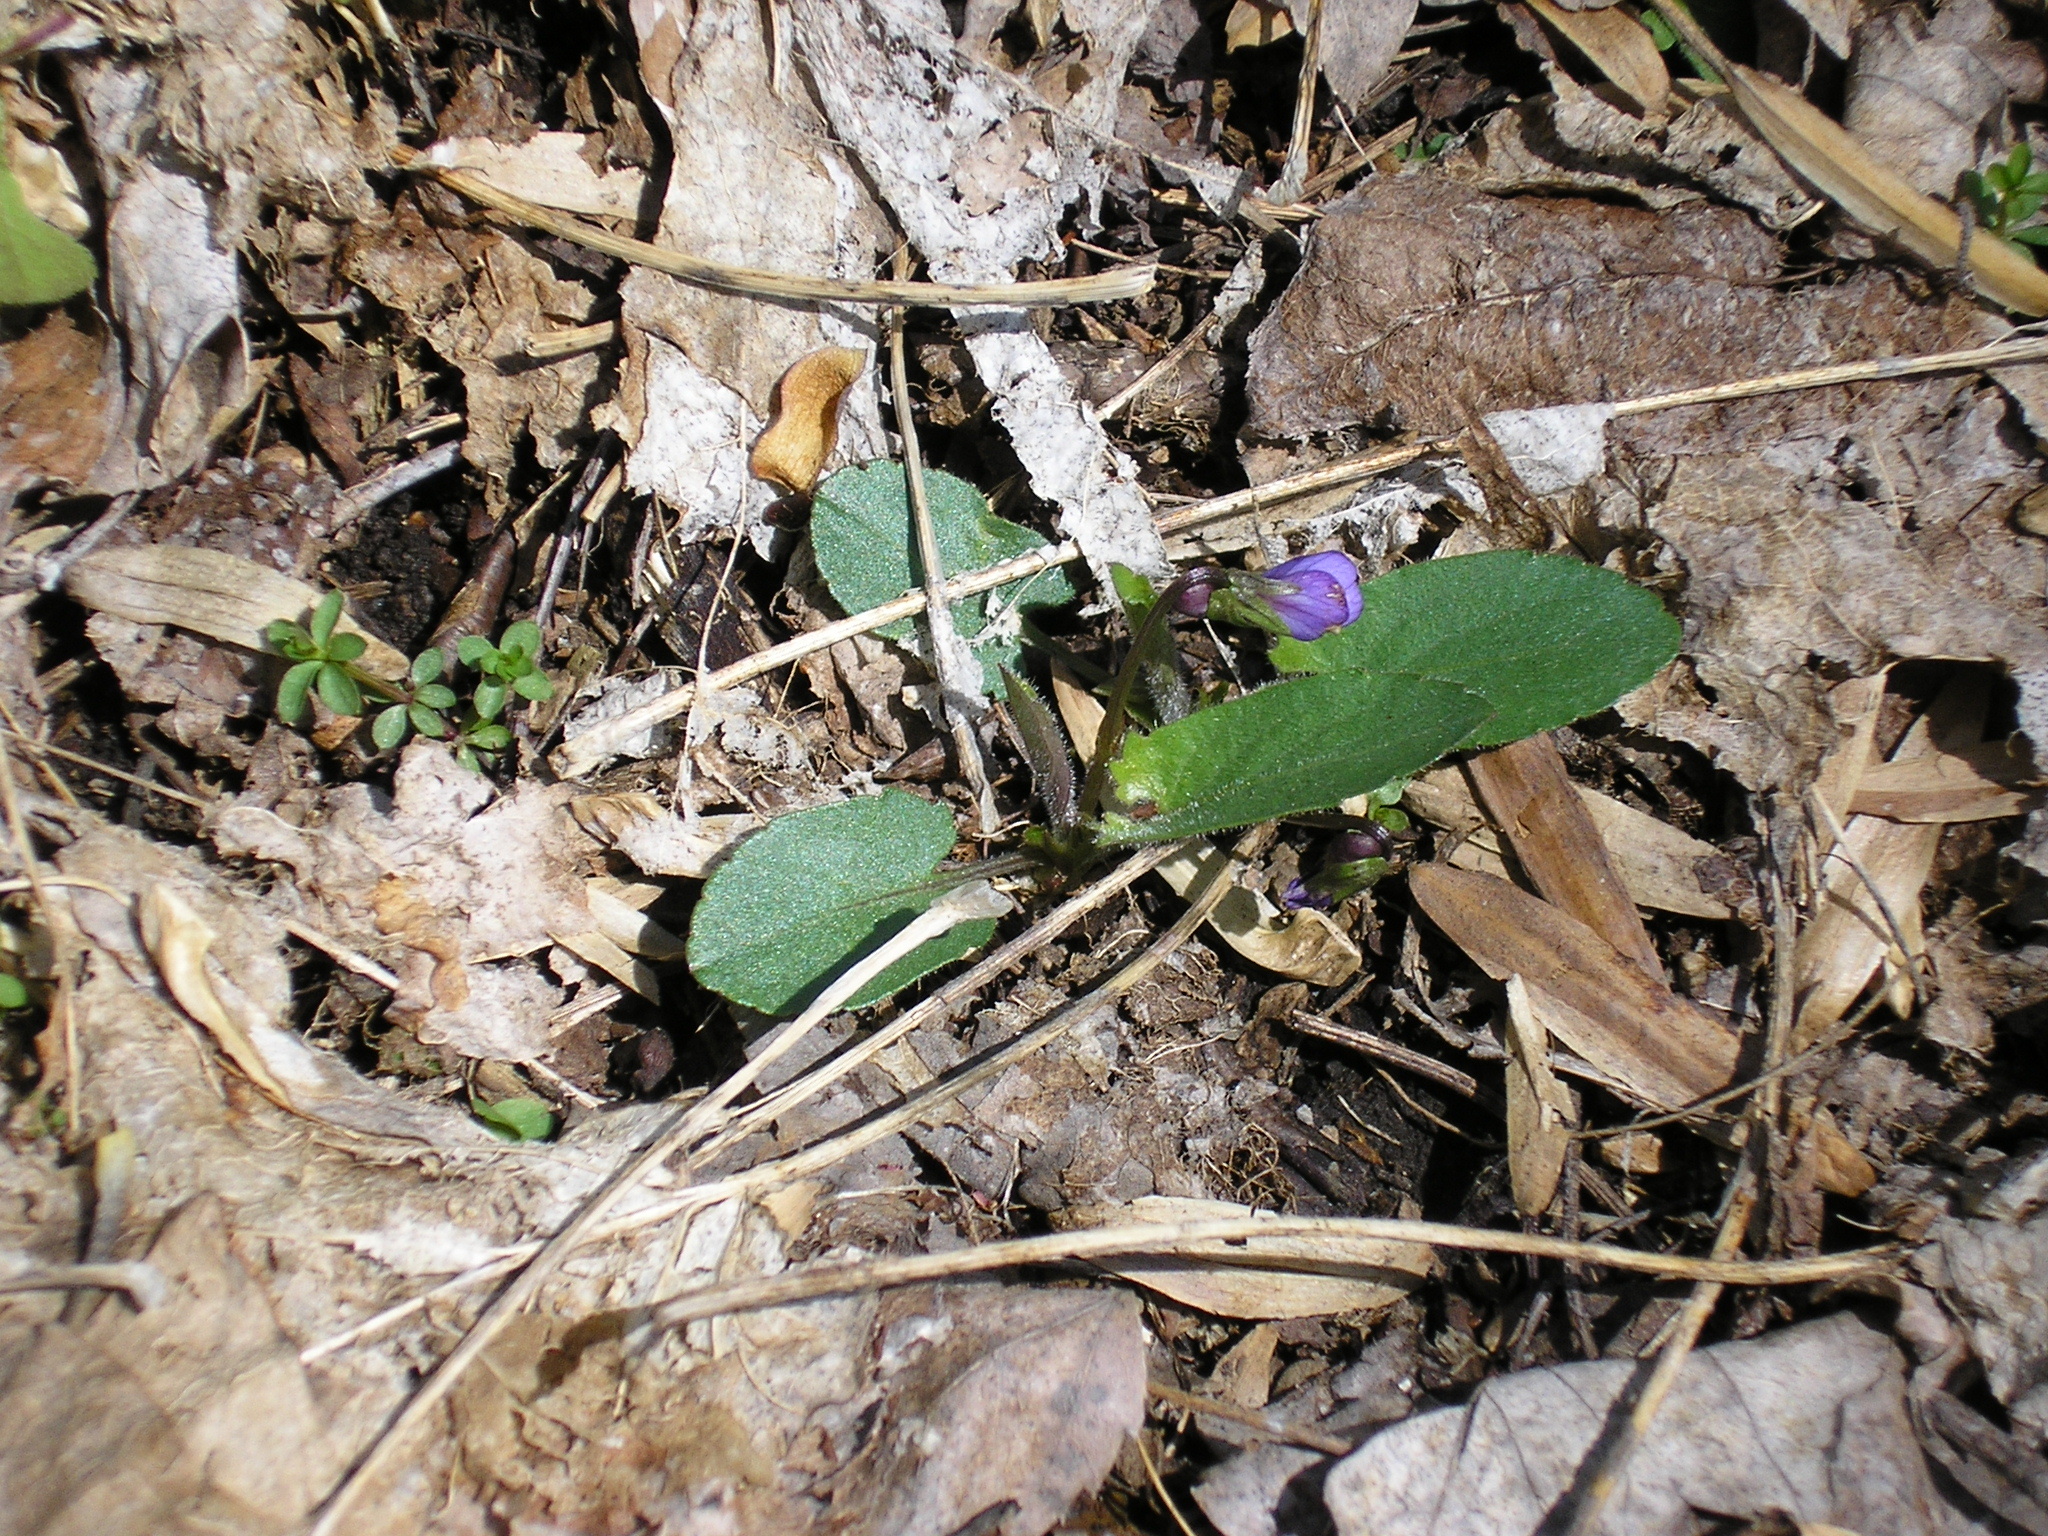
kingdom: Plantae
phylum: Tracheophyta
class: Magnoliopsida
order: Malpighiales
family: Violaceae
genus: Viola
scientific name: Viola sagittata
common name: Arrowhead violet
